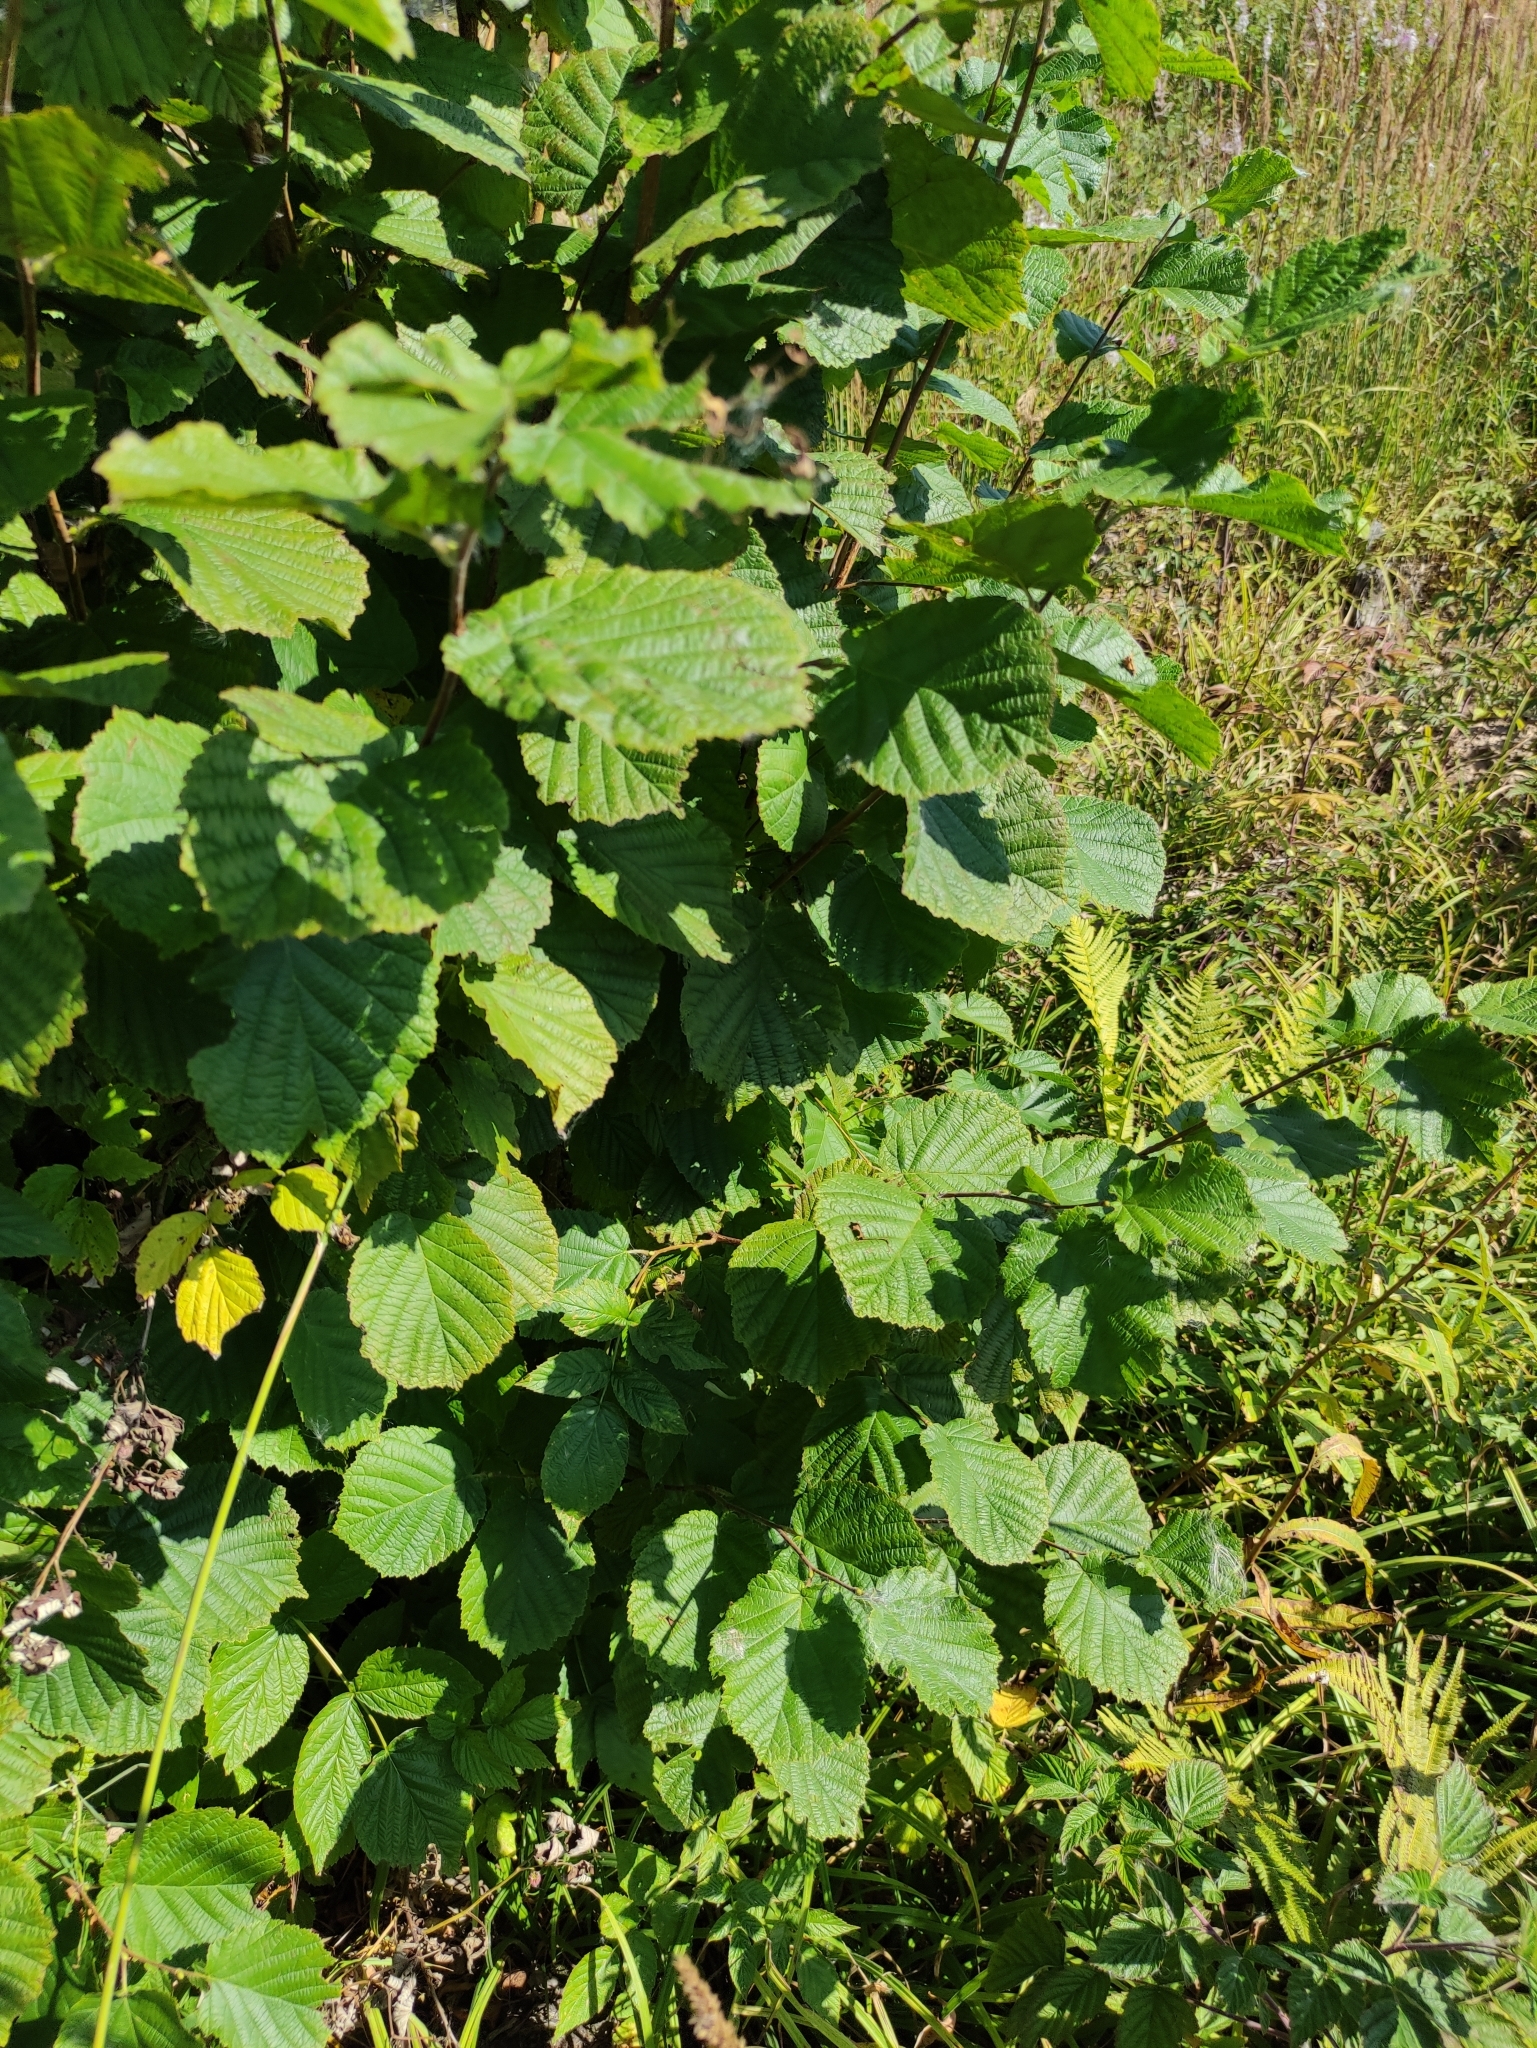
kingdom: Plantae
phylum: Tracheophyta
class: Magnoliopsida
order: Fagales
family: Betulaceae
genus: Corylus
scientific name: Corylus avellana
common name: European hazel
